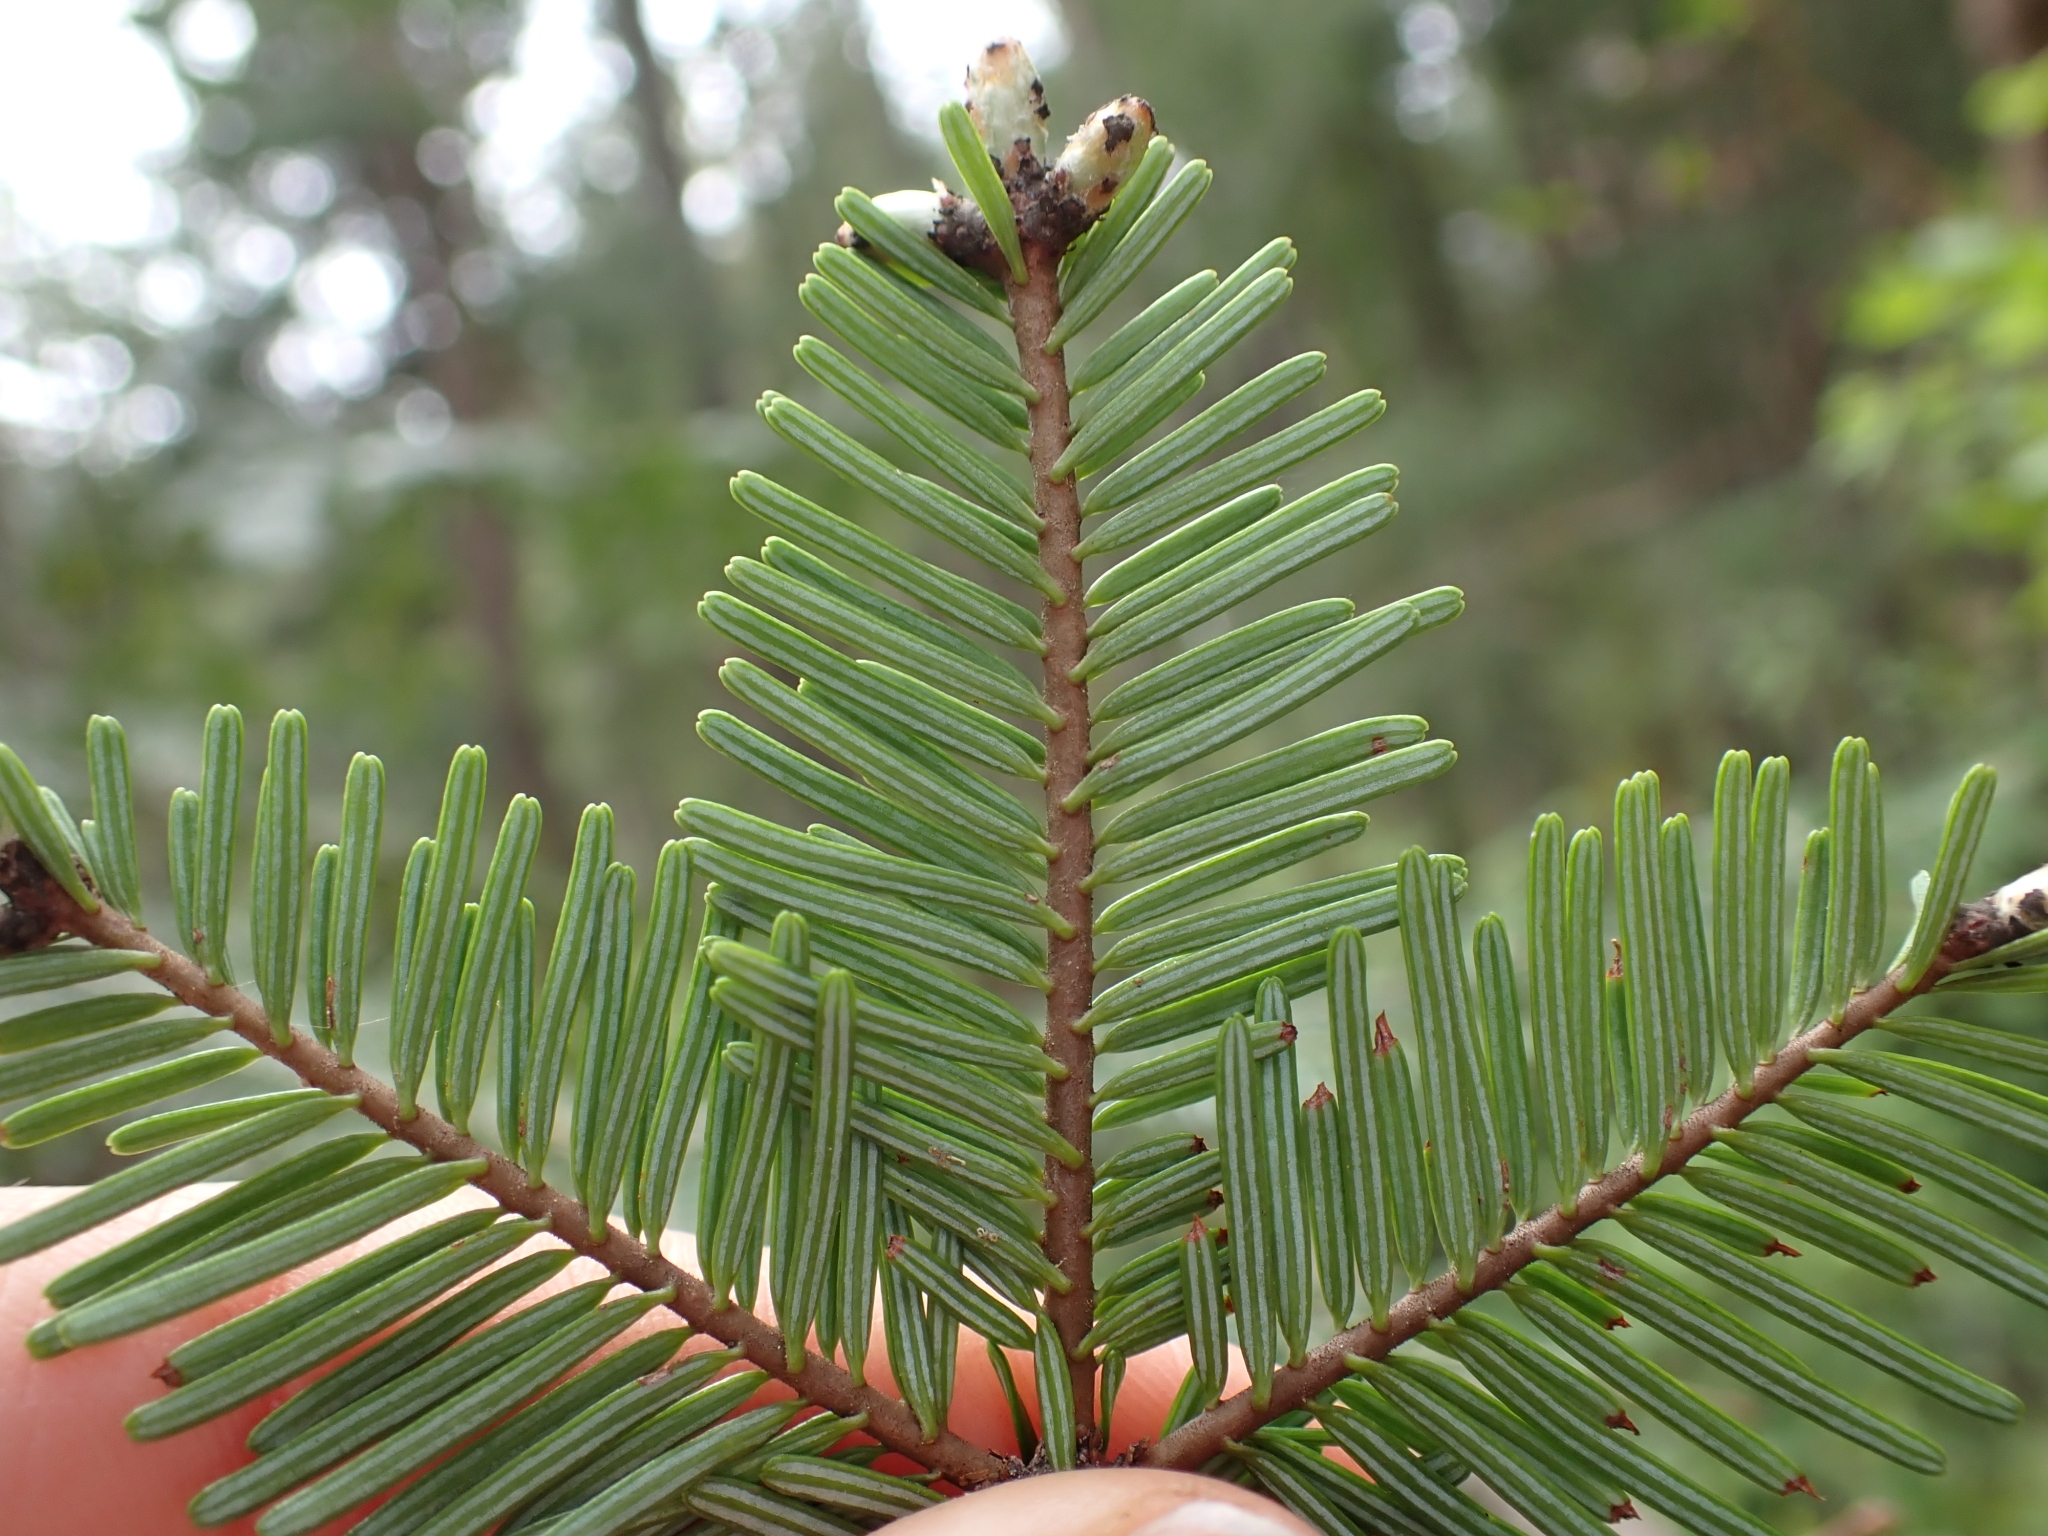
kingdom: Plantae
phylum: Tracheophyta
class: Pinopsida
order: Pinales
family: Pinaceae
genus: Abies
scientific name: Abies grandis
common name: Giant fir
